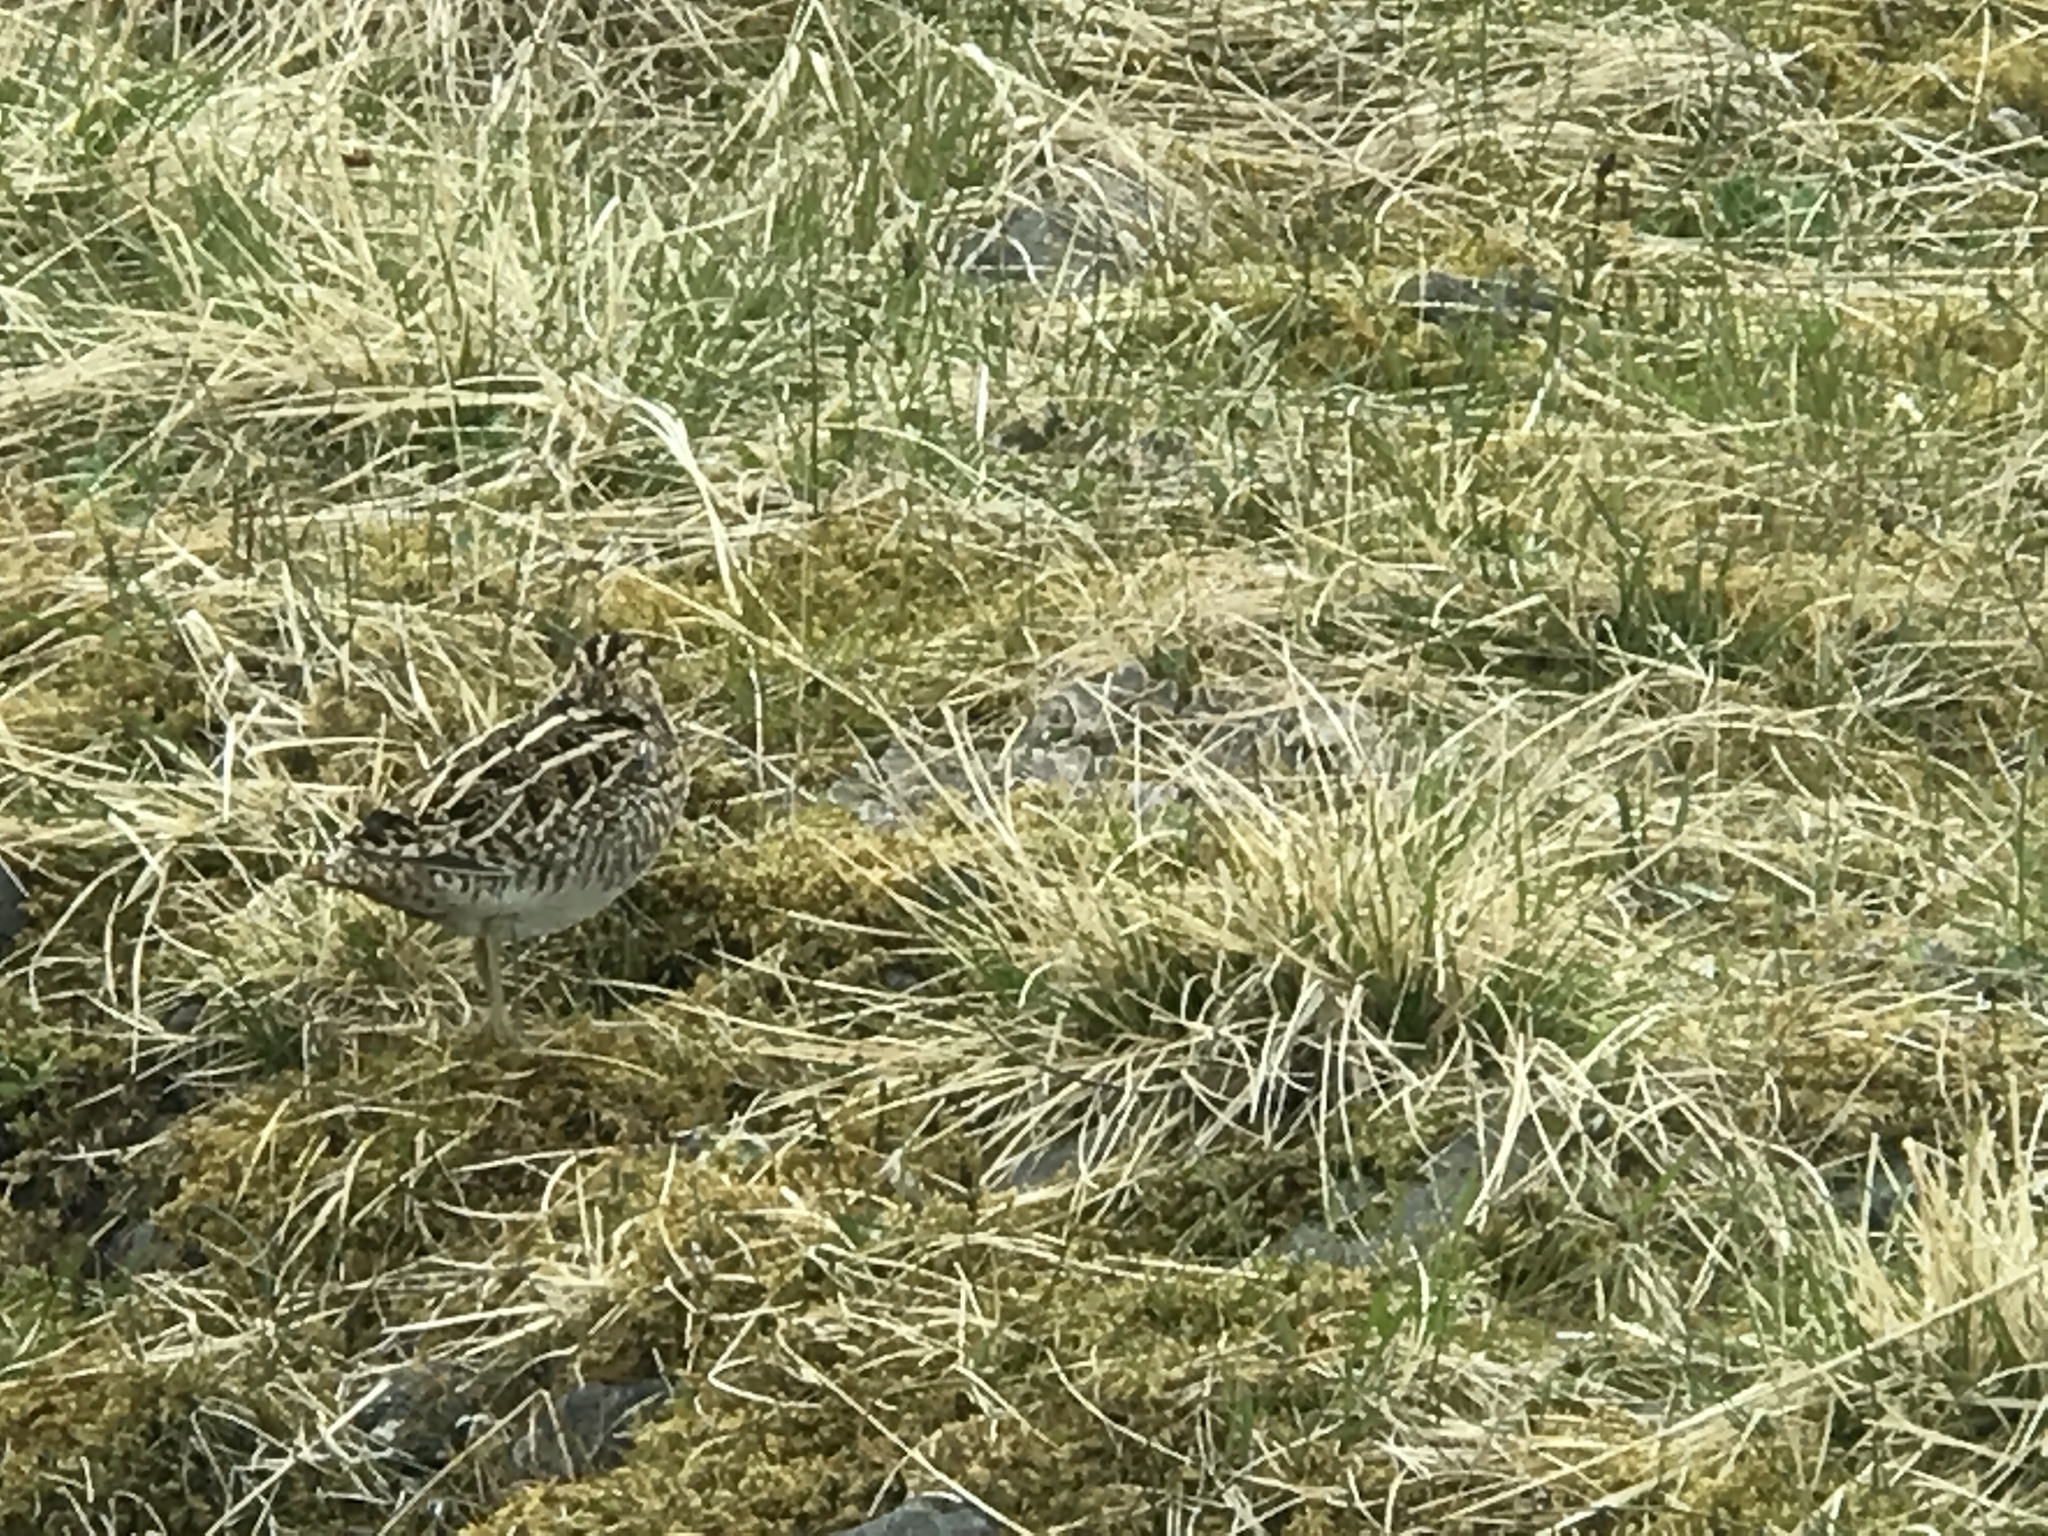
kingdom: Animalia
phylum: Chordata
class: Aves
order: Charadriiformes
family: Scolopacidae
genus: Gallinago
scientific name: Gallinago gallinago
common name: Common snipe
